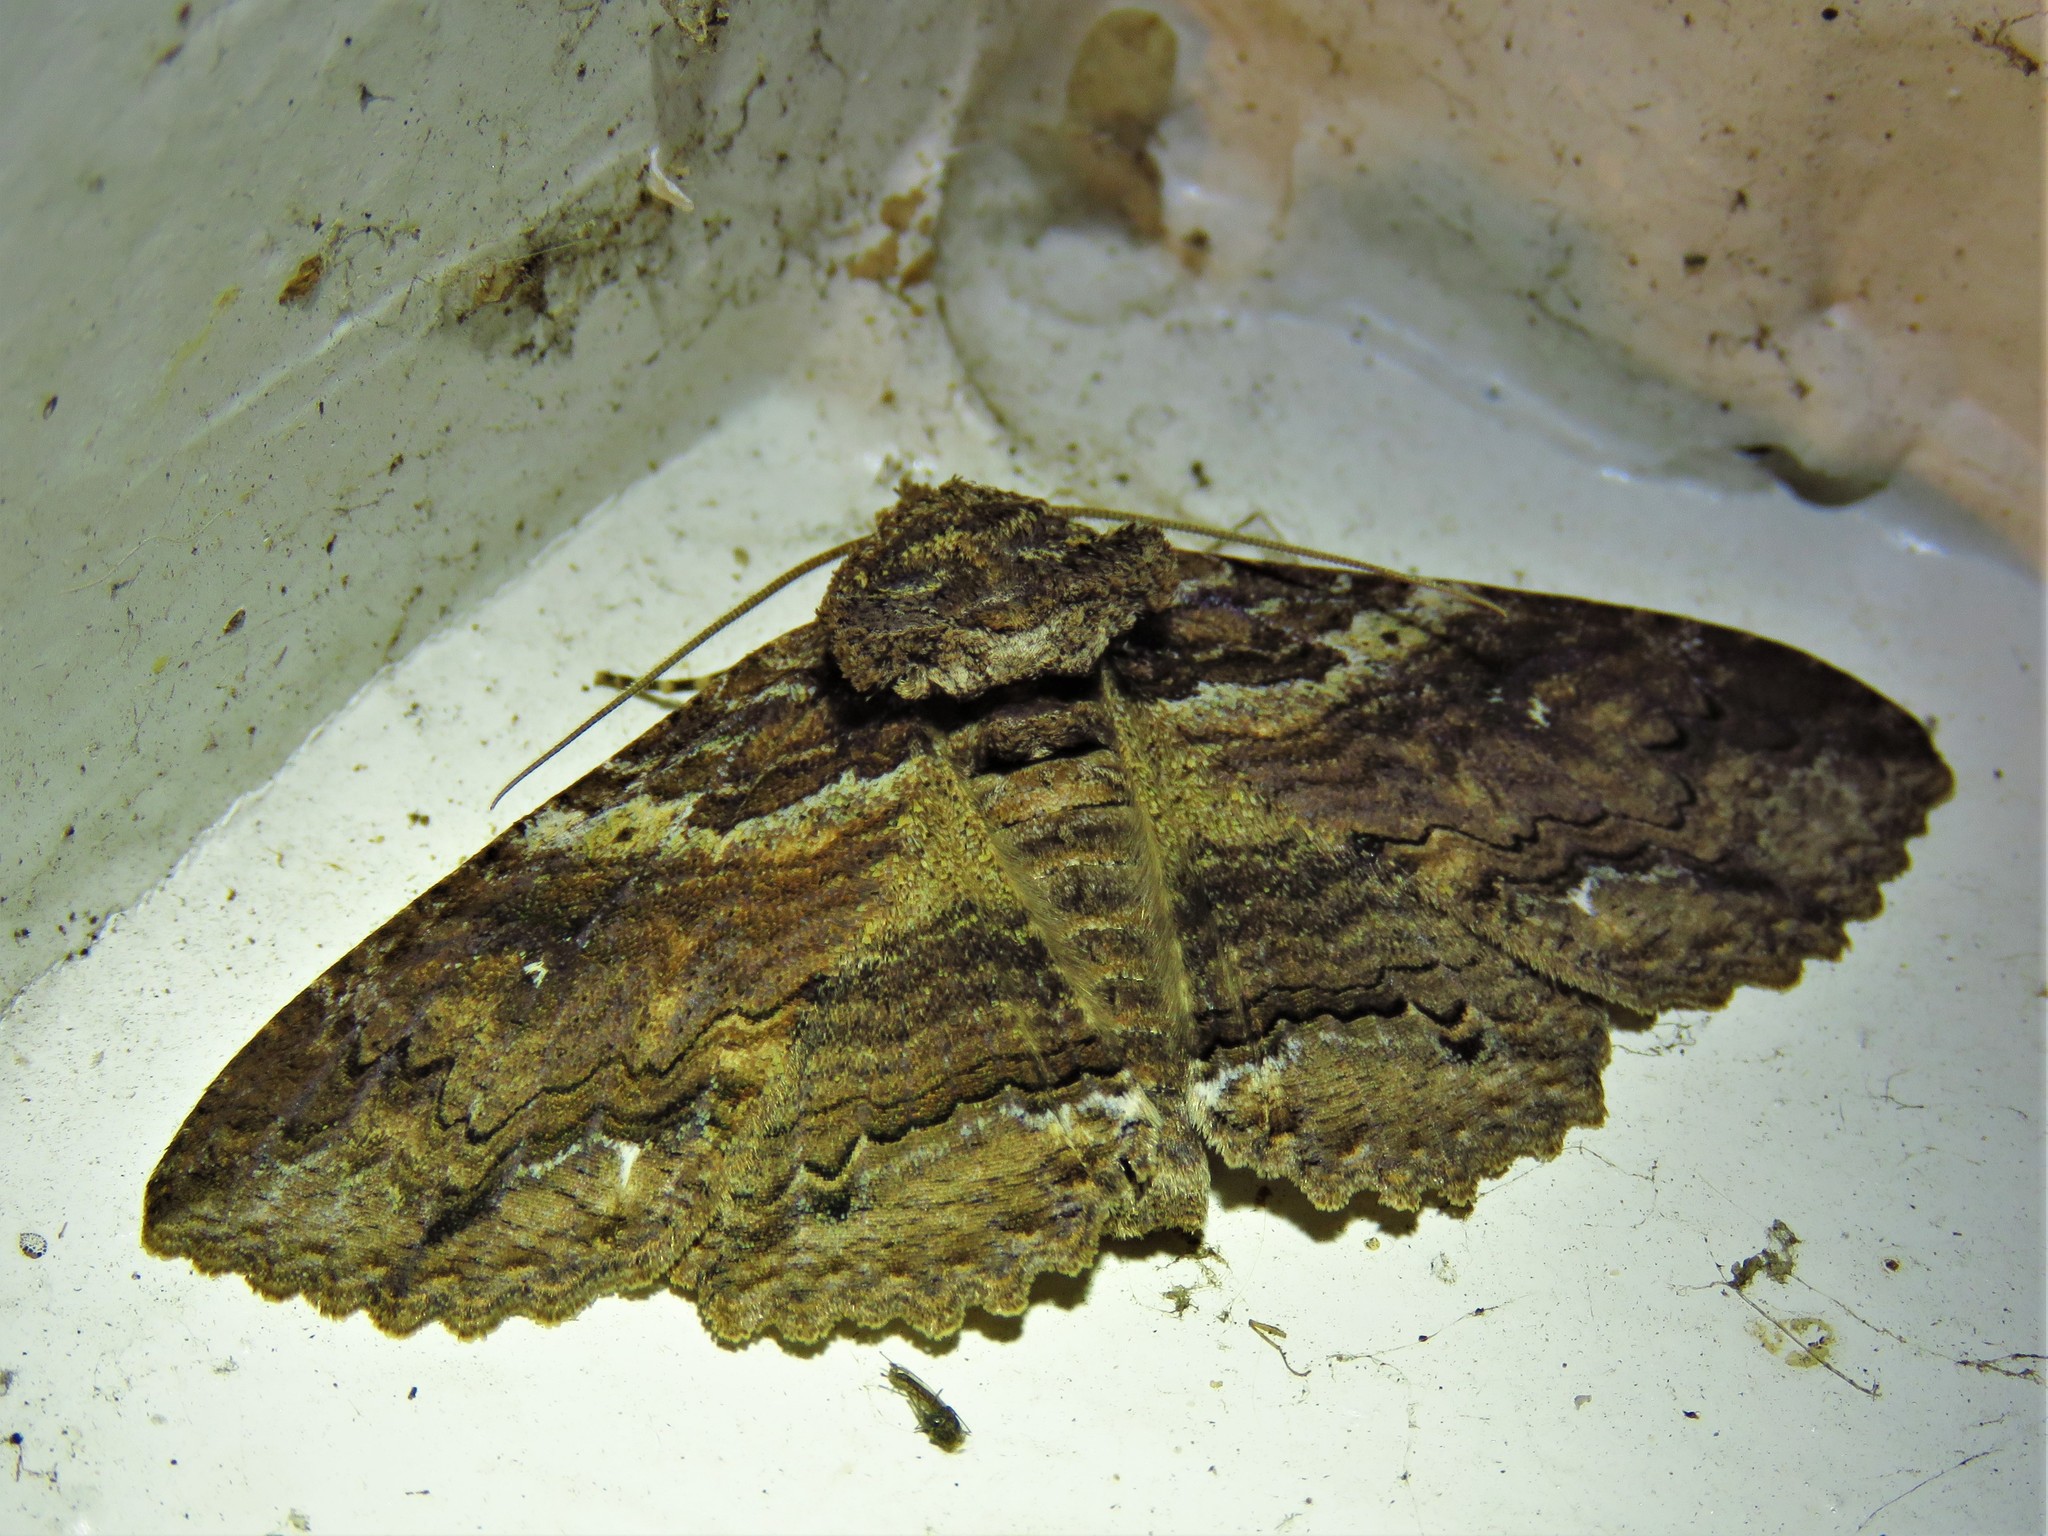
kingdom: Animalia
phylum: Arthropoda
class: Insecta
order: Lepidoptera
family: Erebidae
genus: Zale
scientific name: Zale lunata
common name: Lunate zale moth
